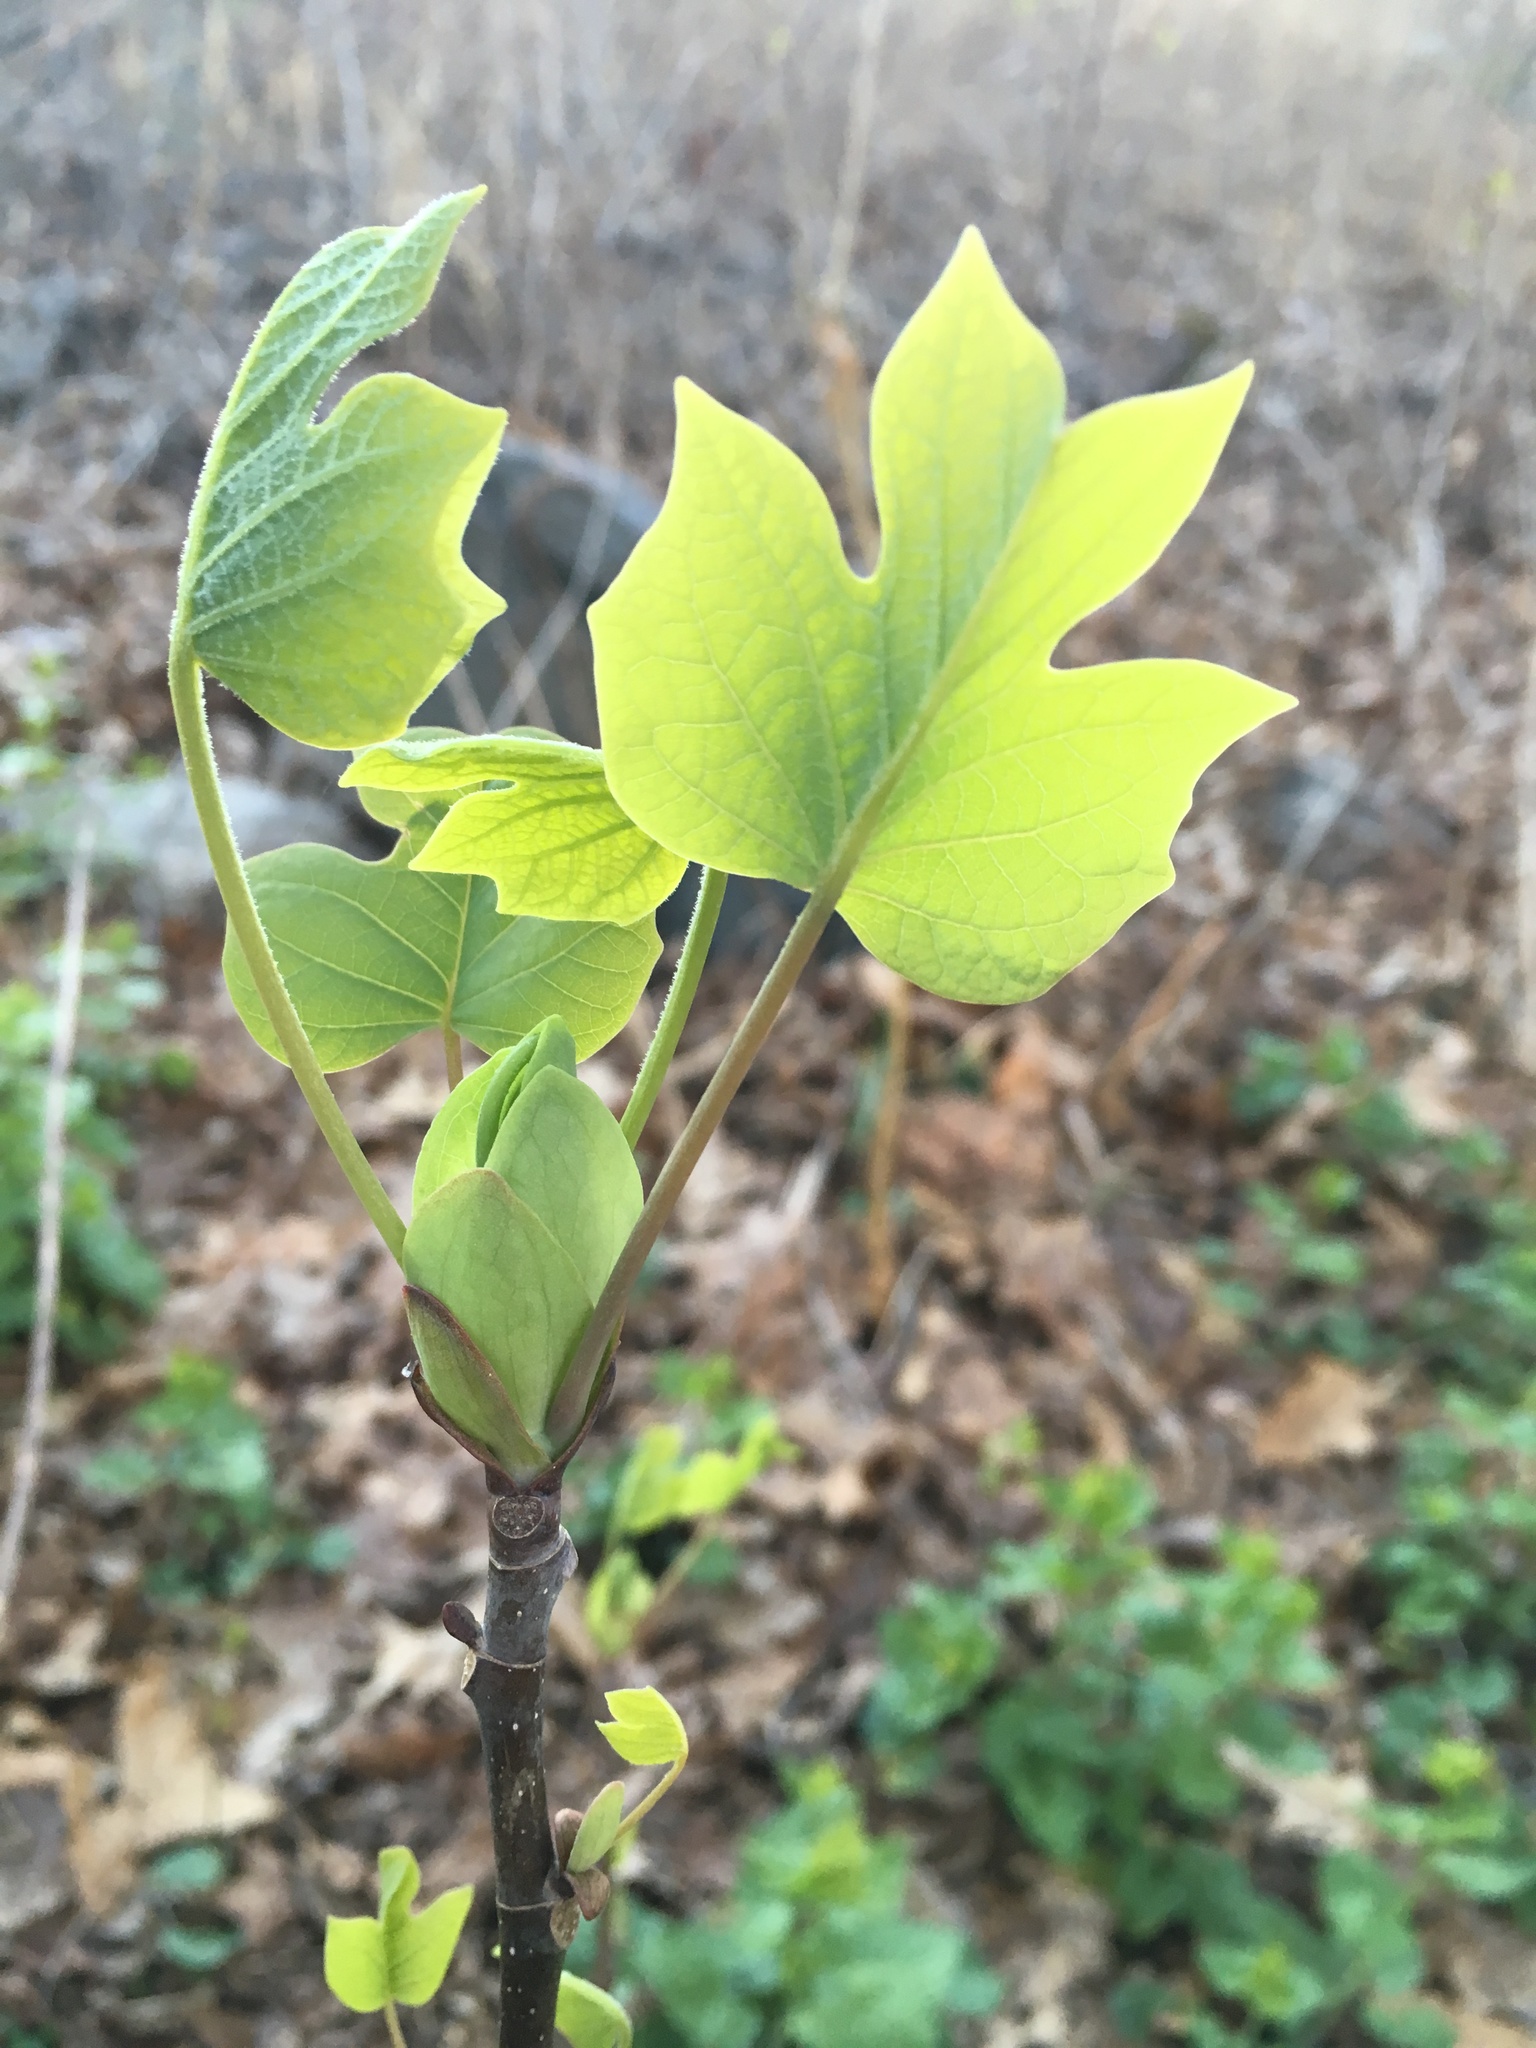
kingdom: Plantae
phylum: Tracheophyta
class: Magnoliopsida
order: Magnoliales
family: Magnoliaceae
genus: Liriodendron
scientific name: Liriodendron tulipifera
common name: Tulip tree
